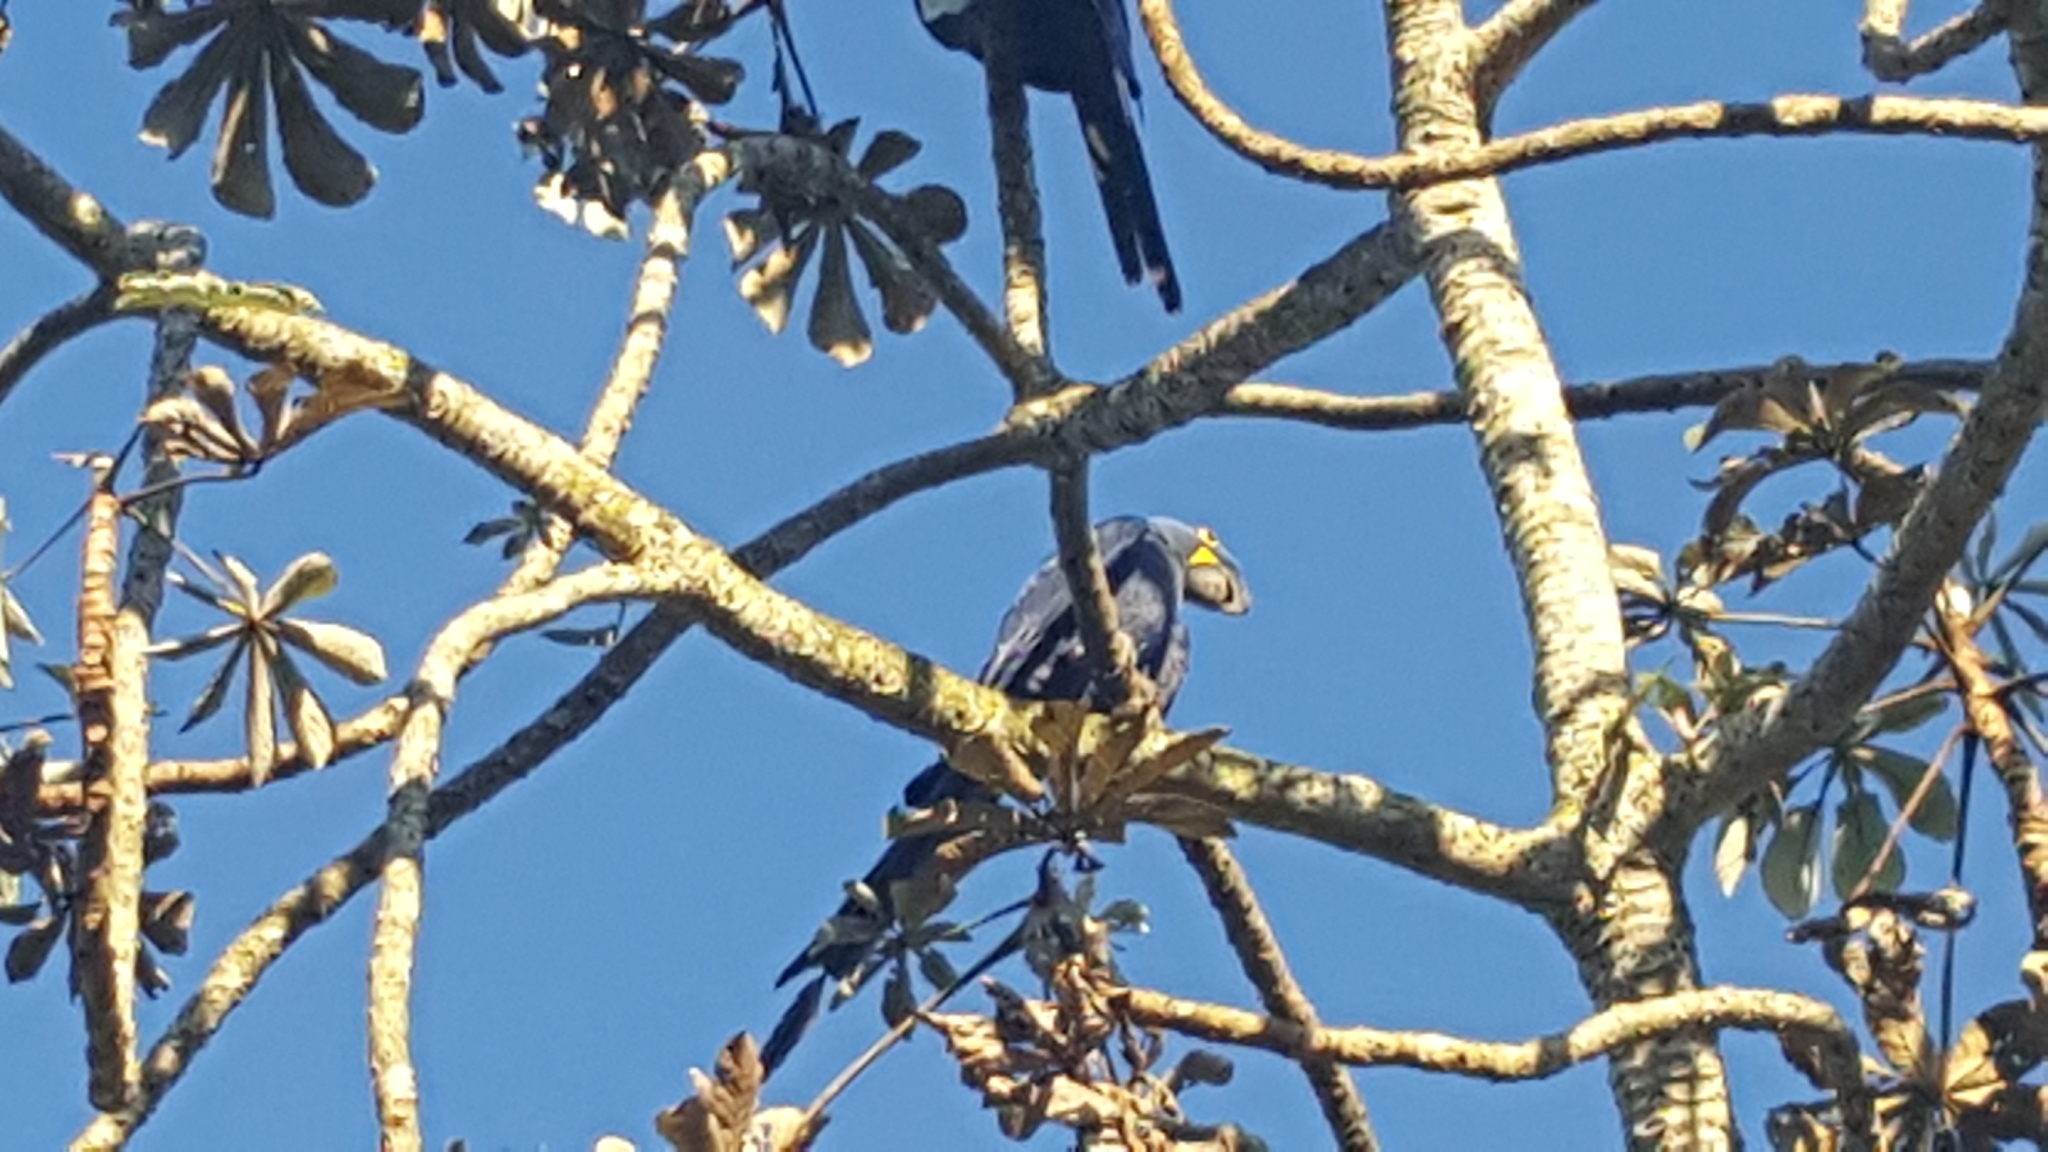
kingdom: Animalia
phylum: Chordata
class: Aves
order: Psittaciformes
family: Psittacidae
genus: Anodorhynchus
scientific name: Anodorhynchus hyacinthinus
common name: Hyacinth macaw
